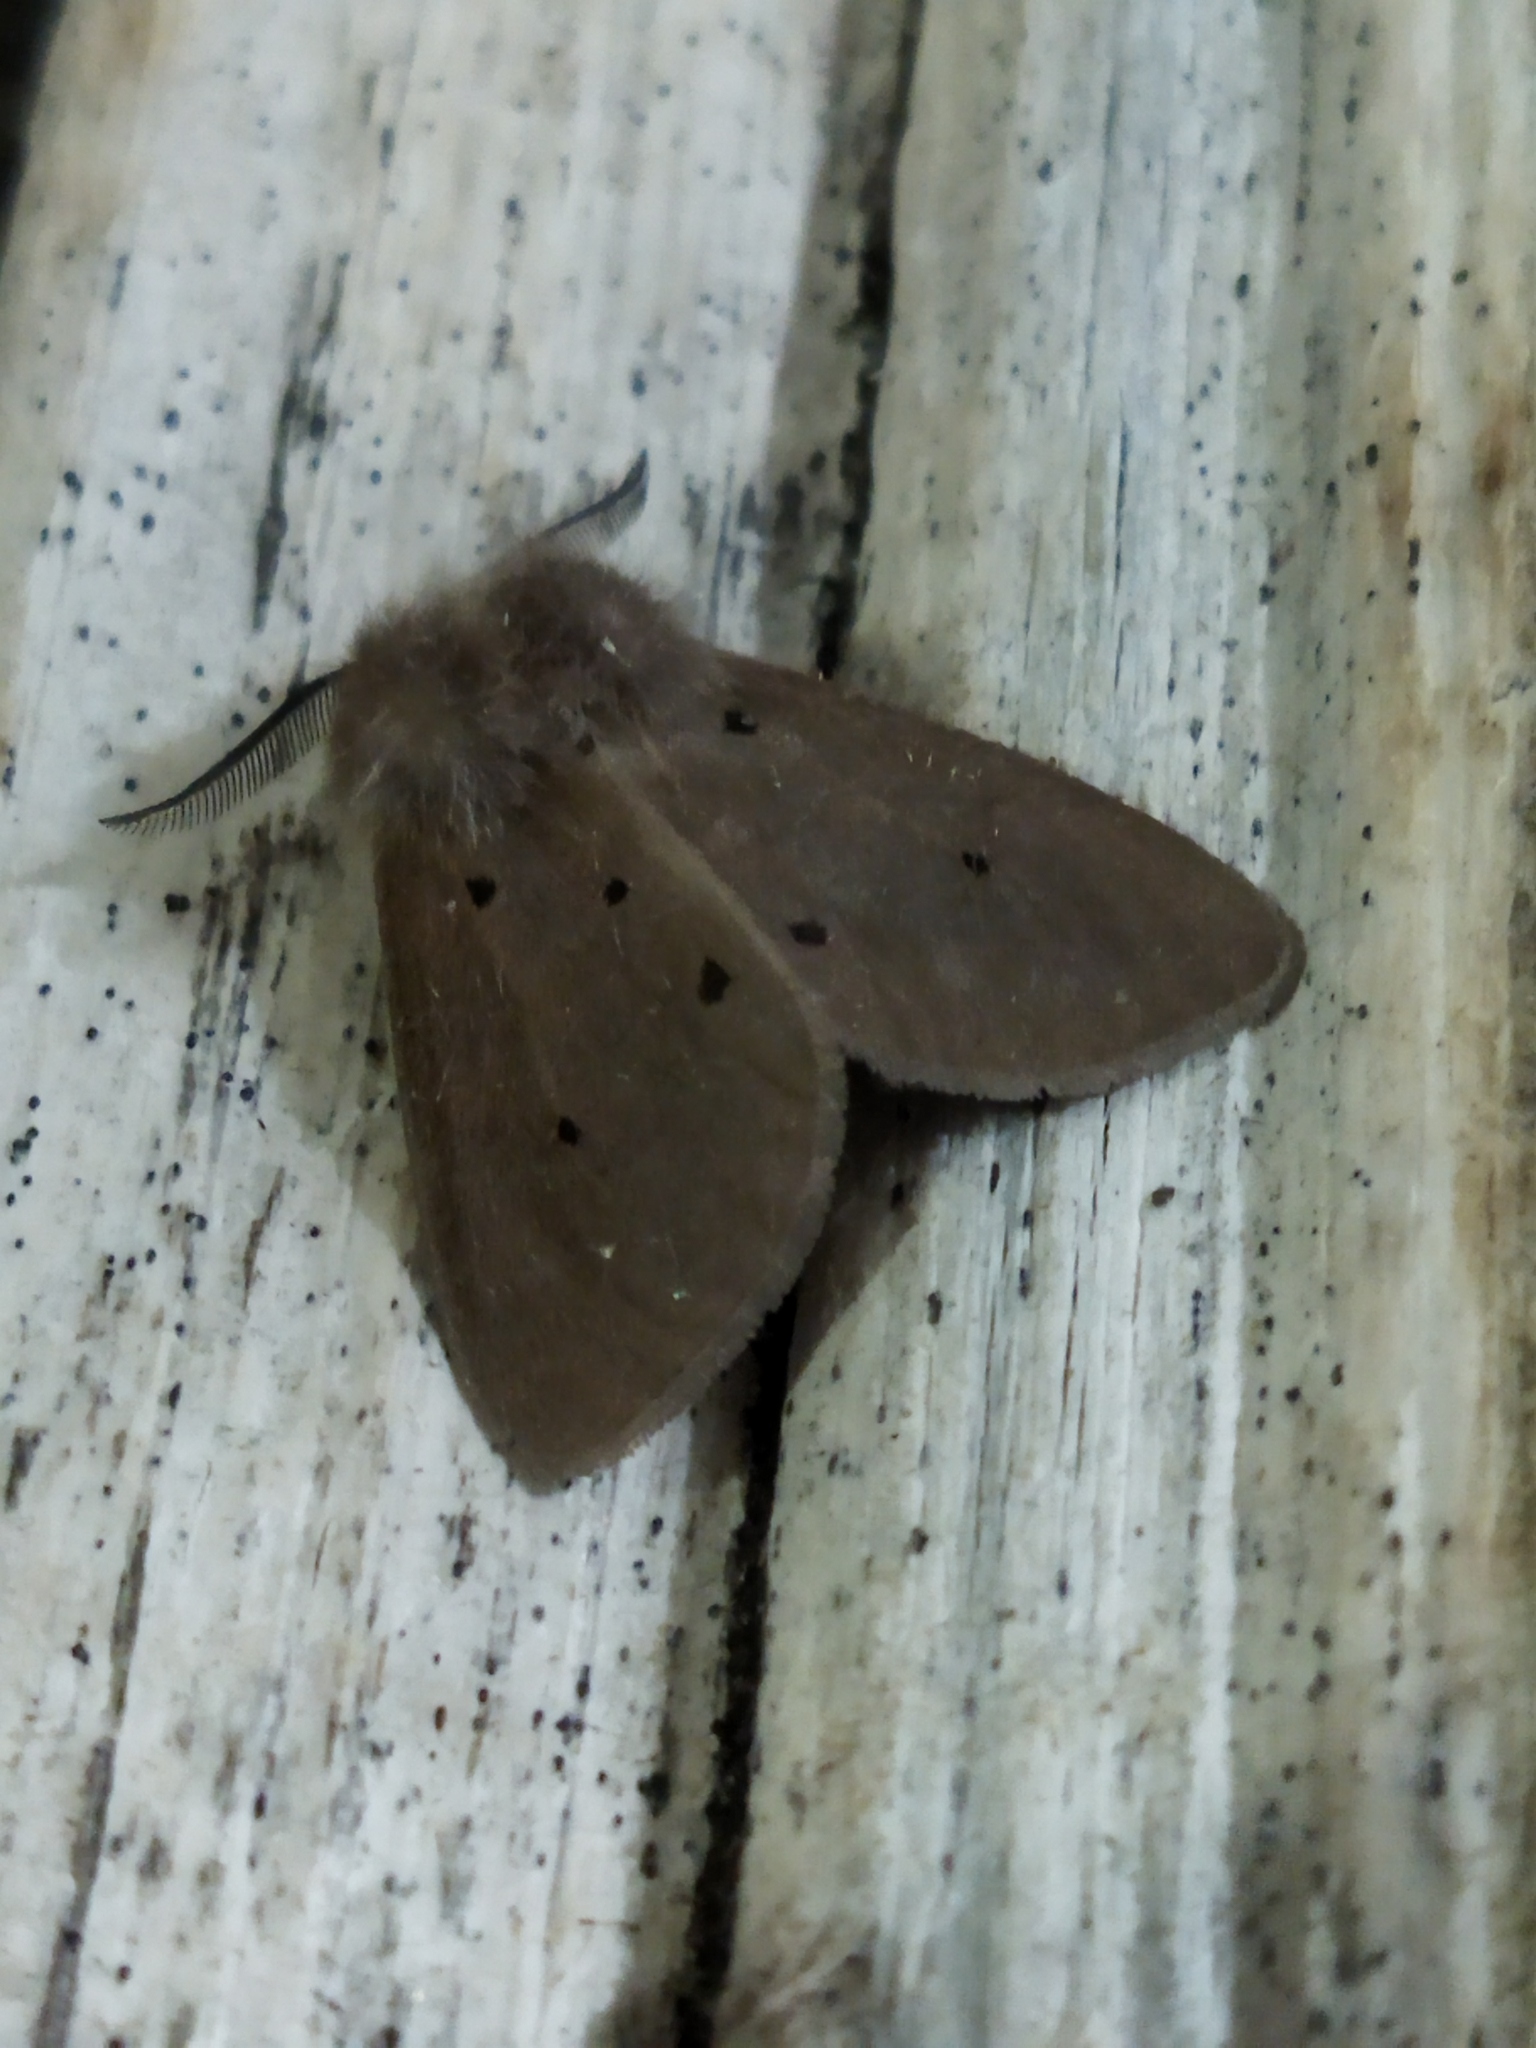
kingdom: Animalia
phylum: Arthropoda
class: Insecta
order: Lepidoptera
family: Erebidae
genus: Diaphora
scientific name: Diaphora mendica
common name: Muslin moth
